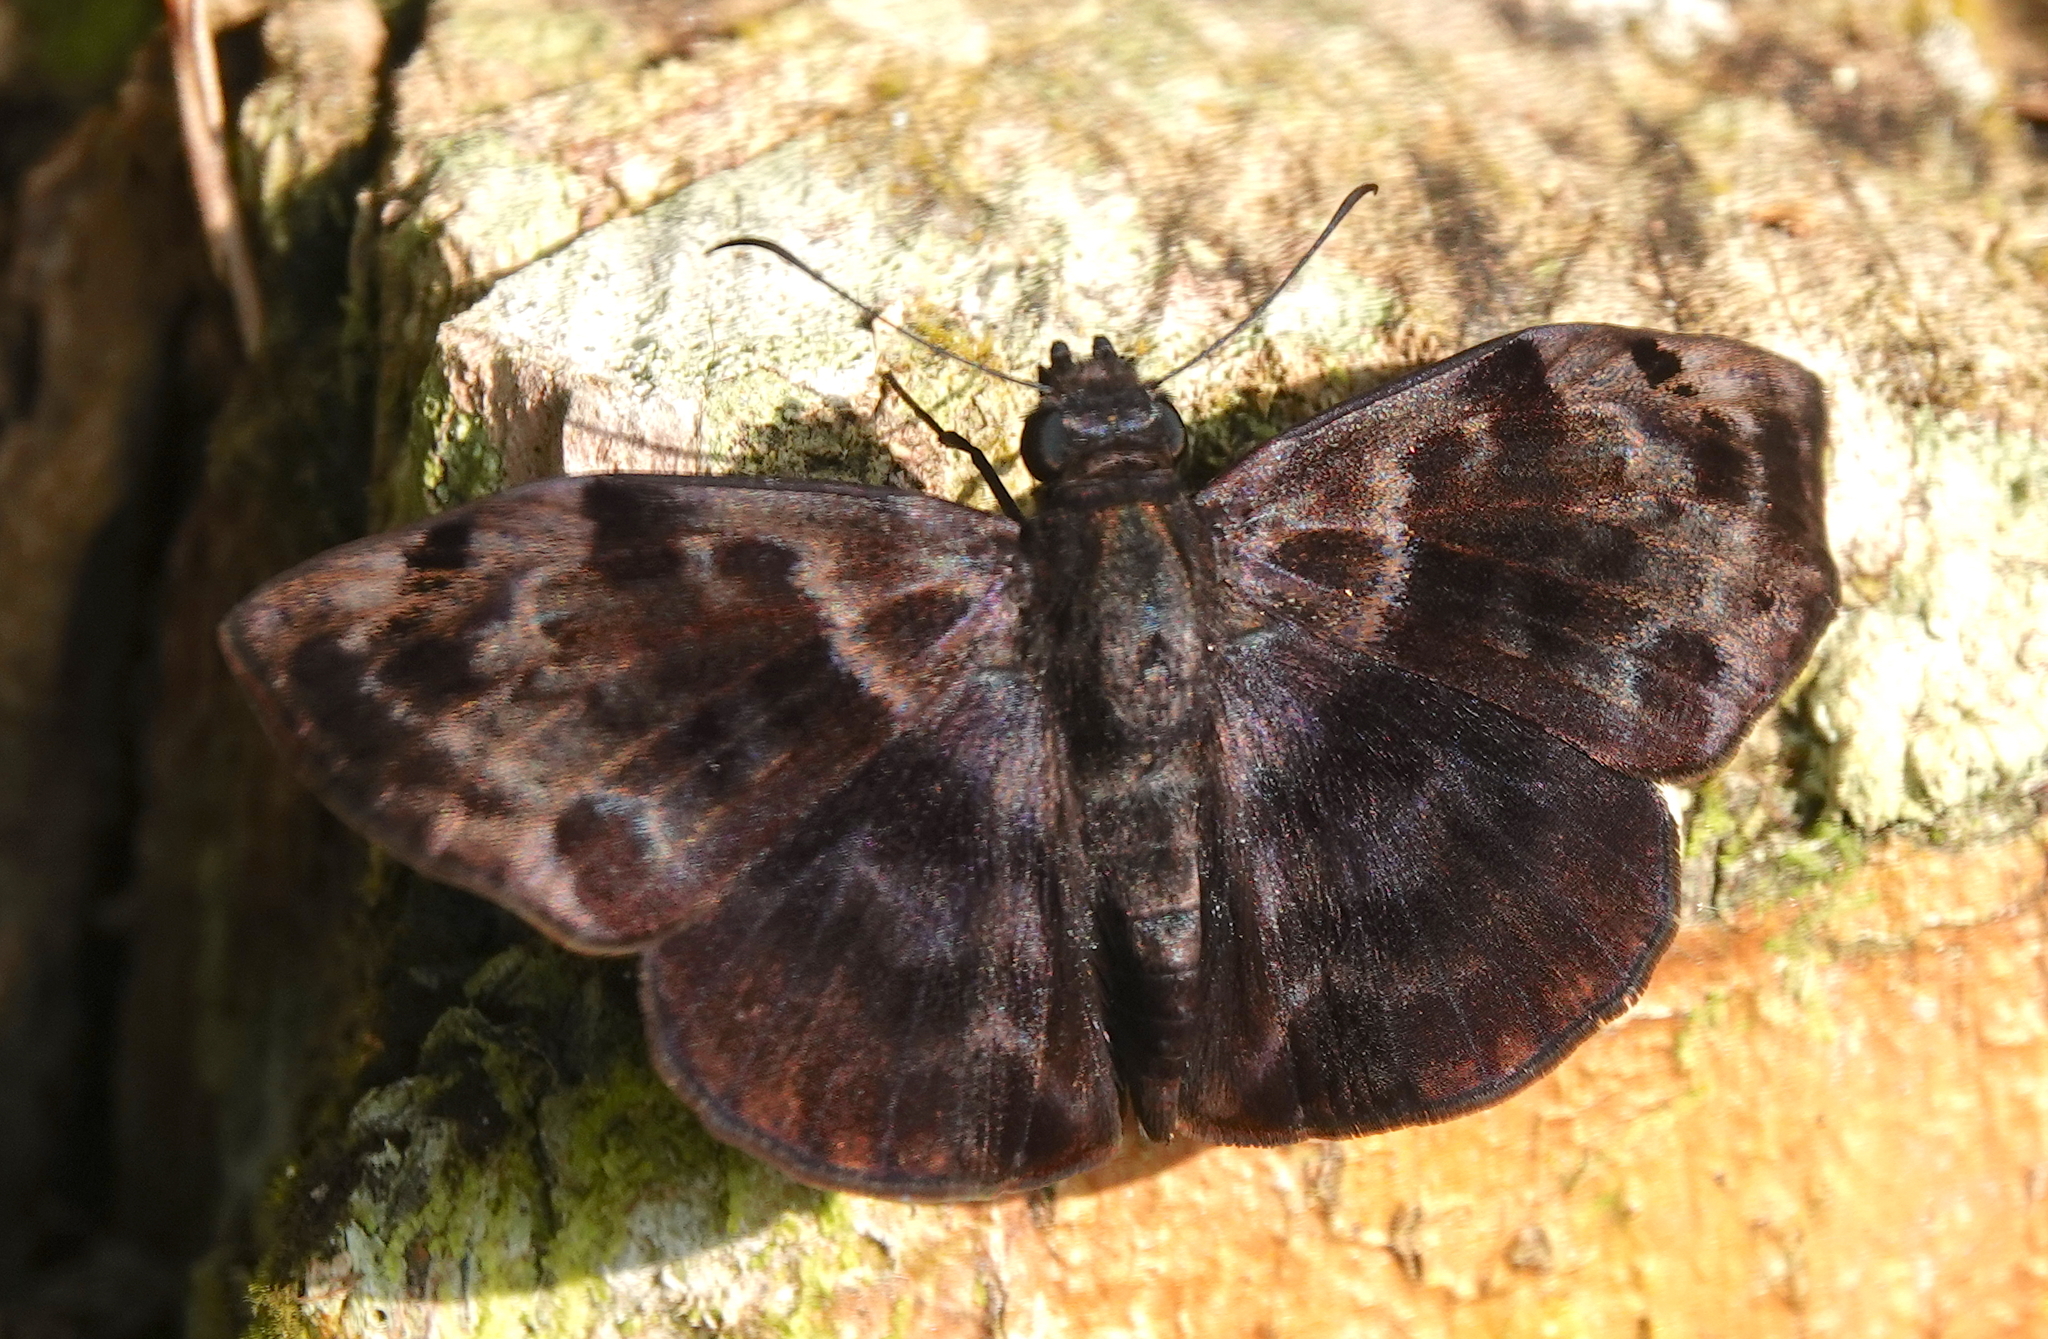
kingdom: Animalia
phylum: Arthropoda
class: Insecta
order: Lepidoptera
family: Hesperiidae
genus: Ebrietas
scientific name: Ebrietas evanidus
